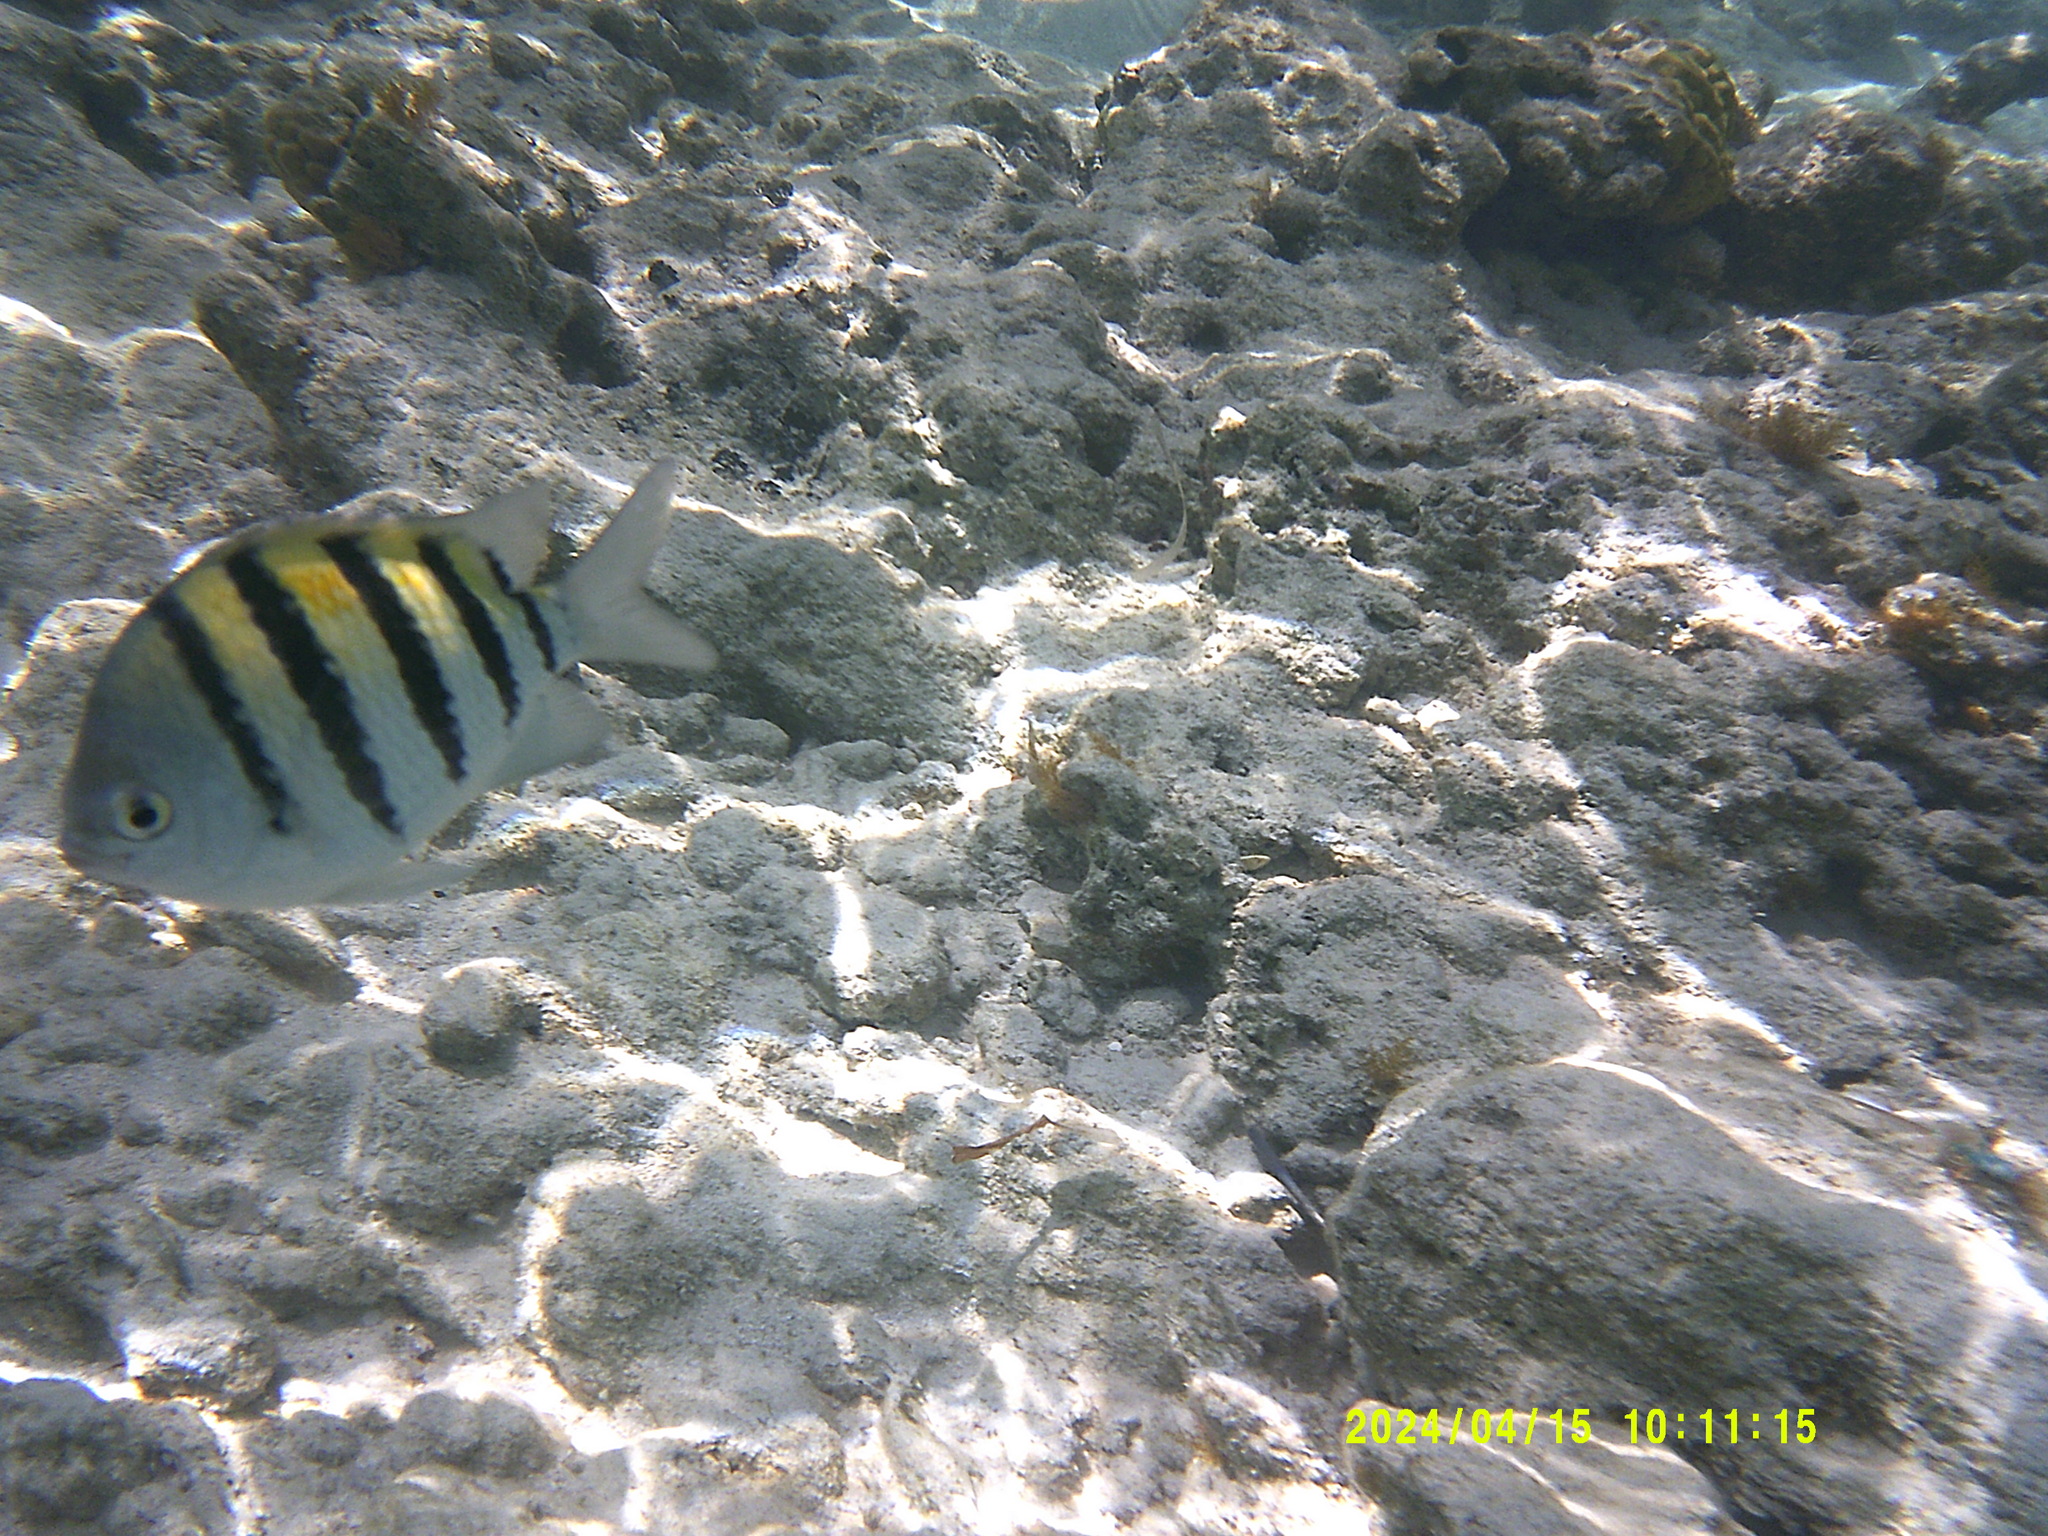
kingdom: Animalia
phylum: Chordata
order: Perciformes
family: Pomacentridae
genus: Abudefduf
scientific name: Abudefduf saxatilis
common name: Sergeant major
